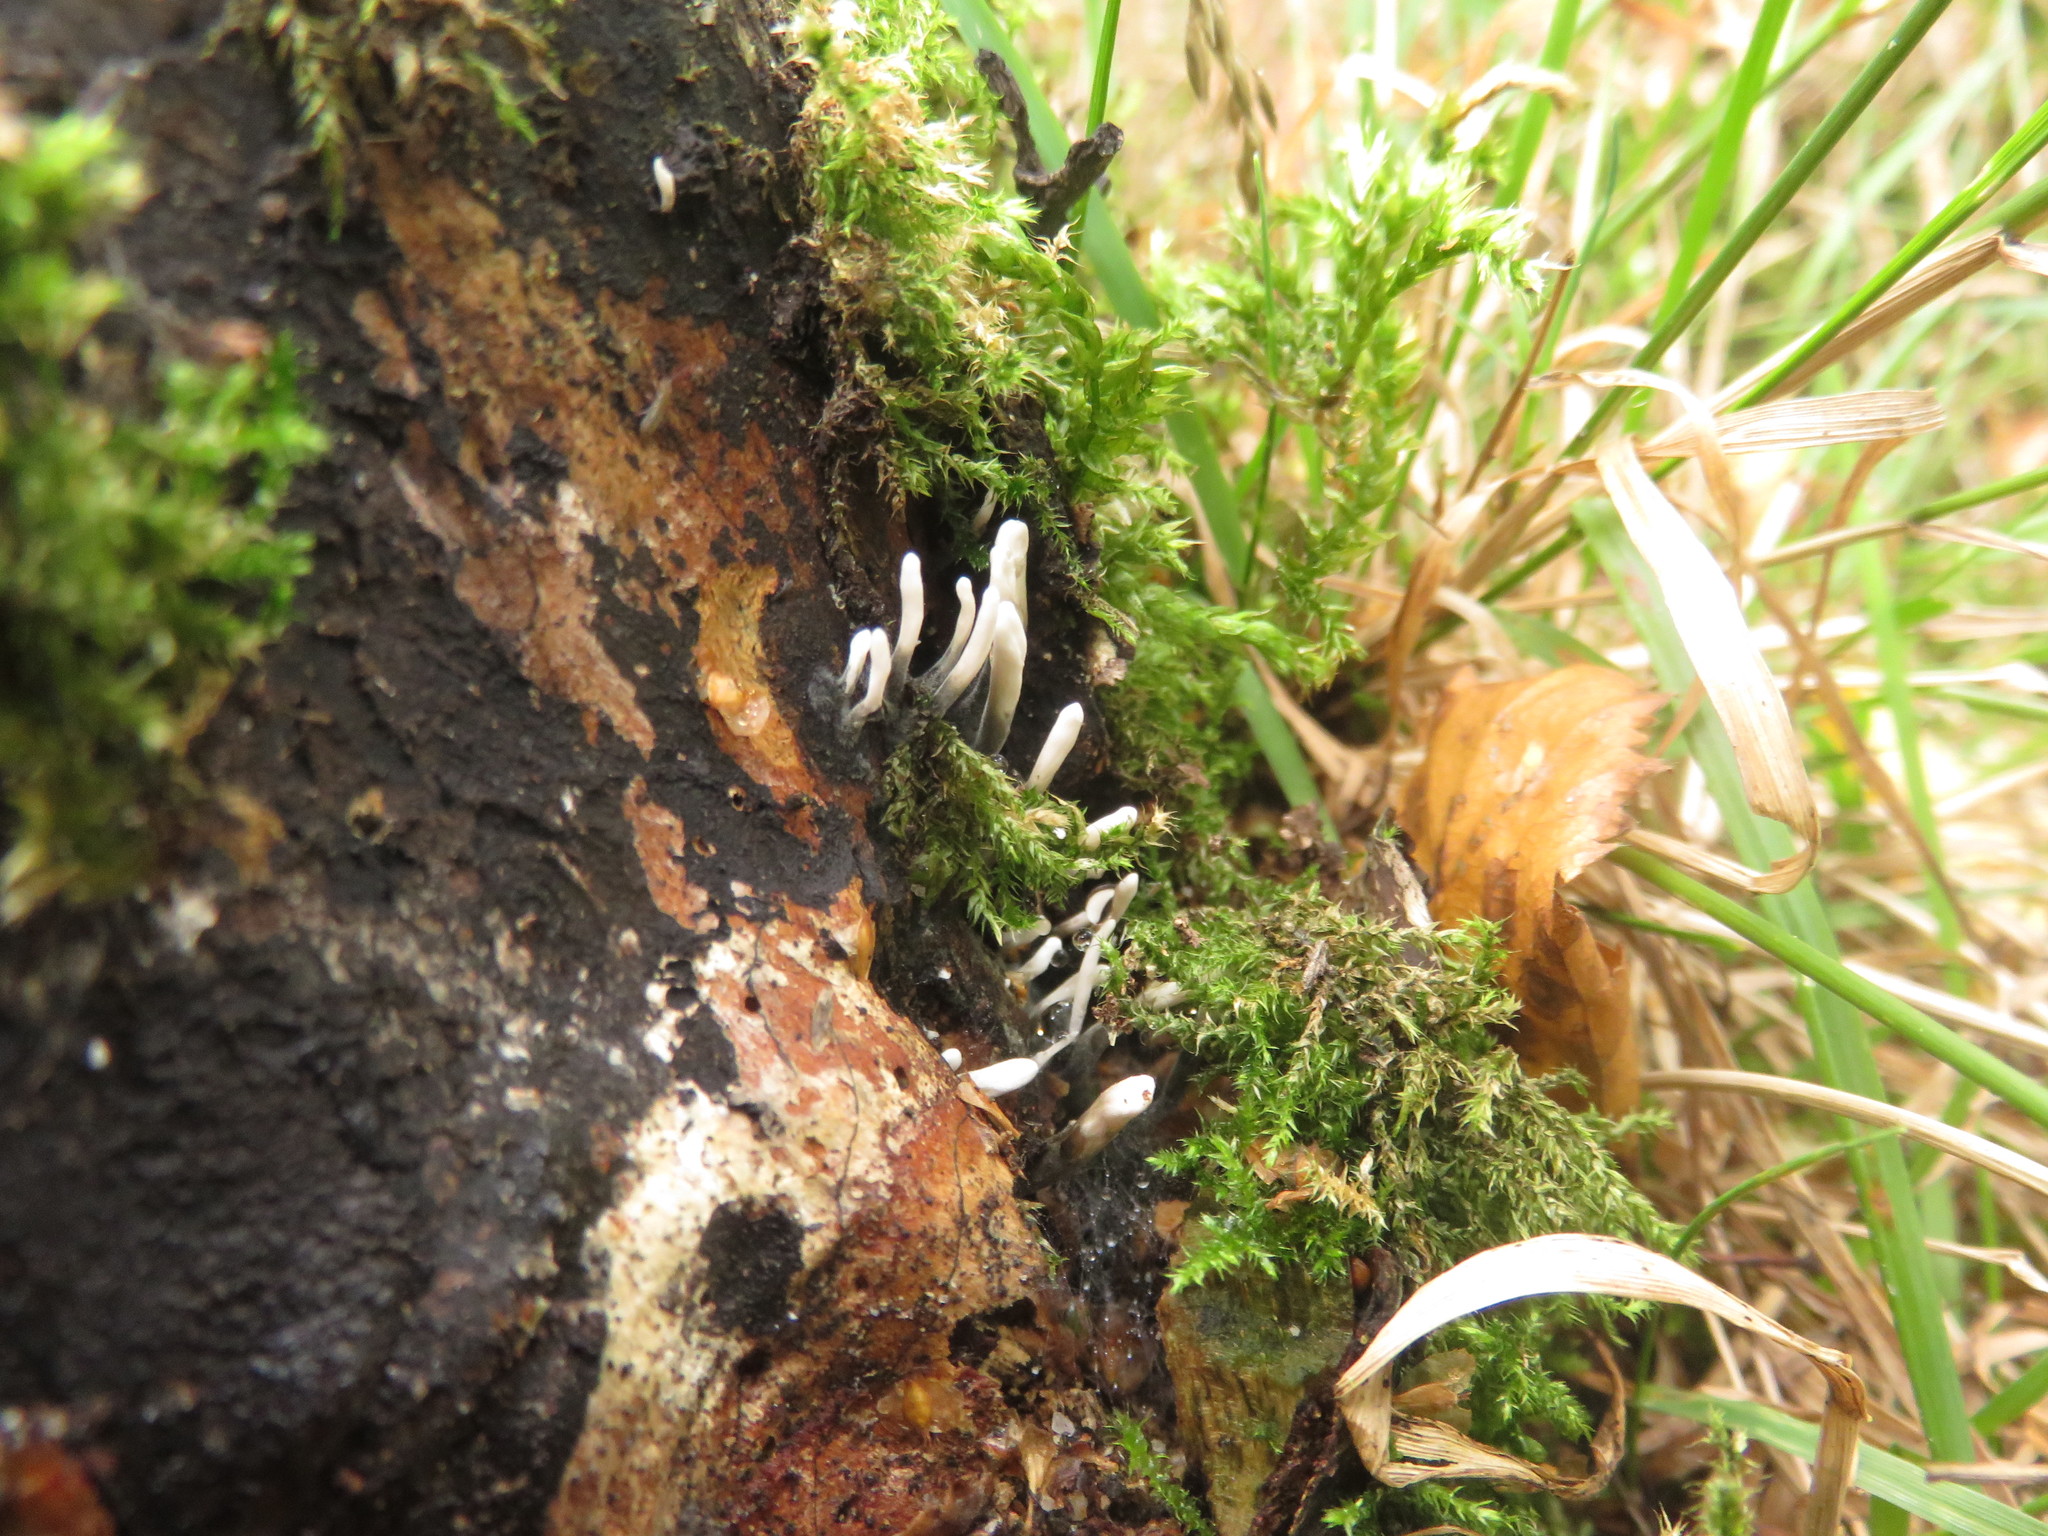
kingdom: Fungi
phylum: Ascomycota
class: Sordariomycetes
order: Xylariales
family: Xylariaceae
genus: Xylaria
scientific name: Xylaria hypoxylon
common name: Candle-snuff fungus
